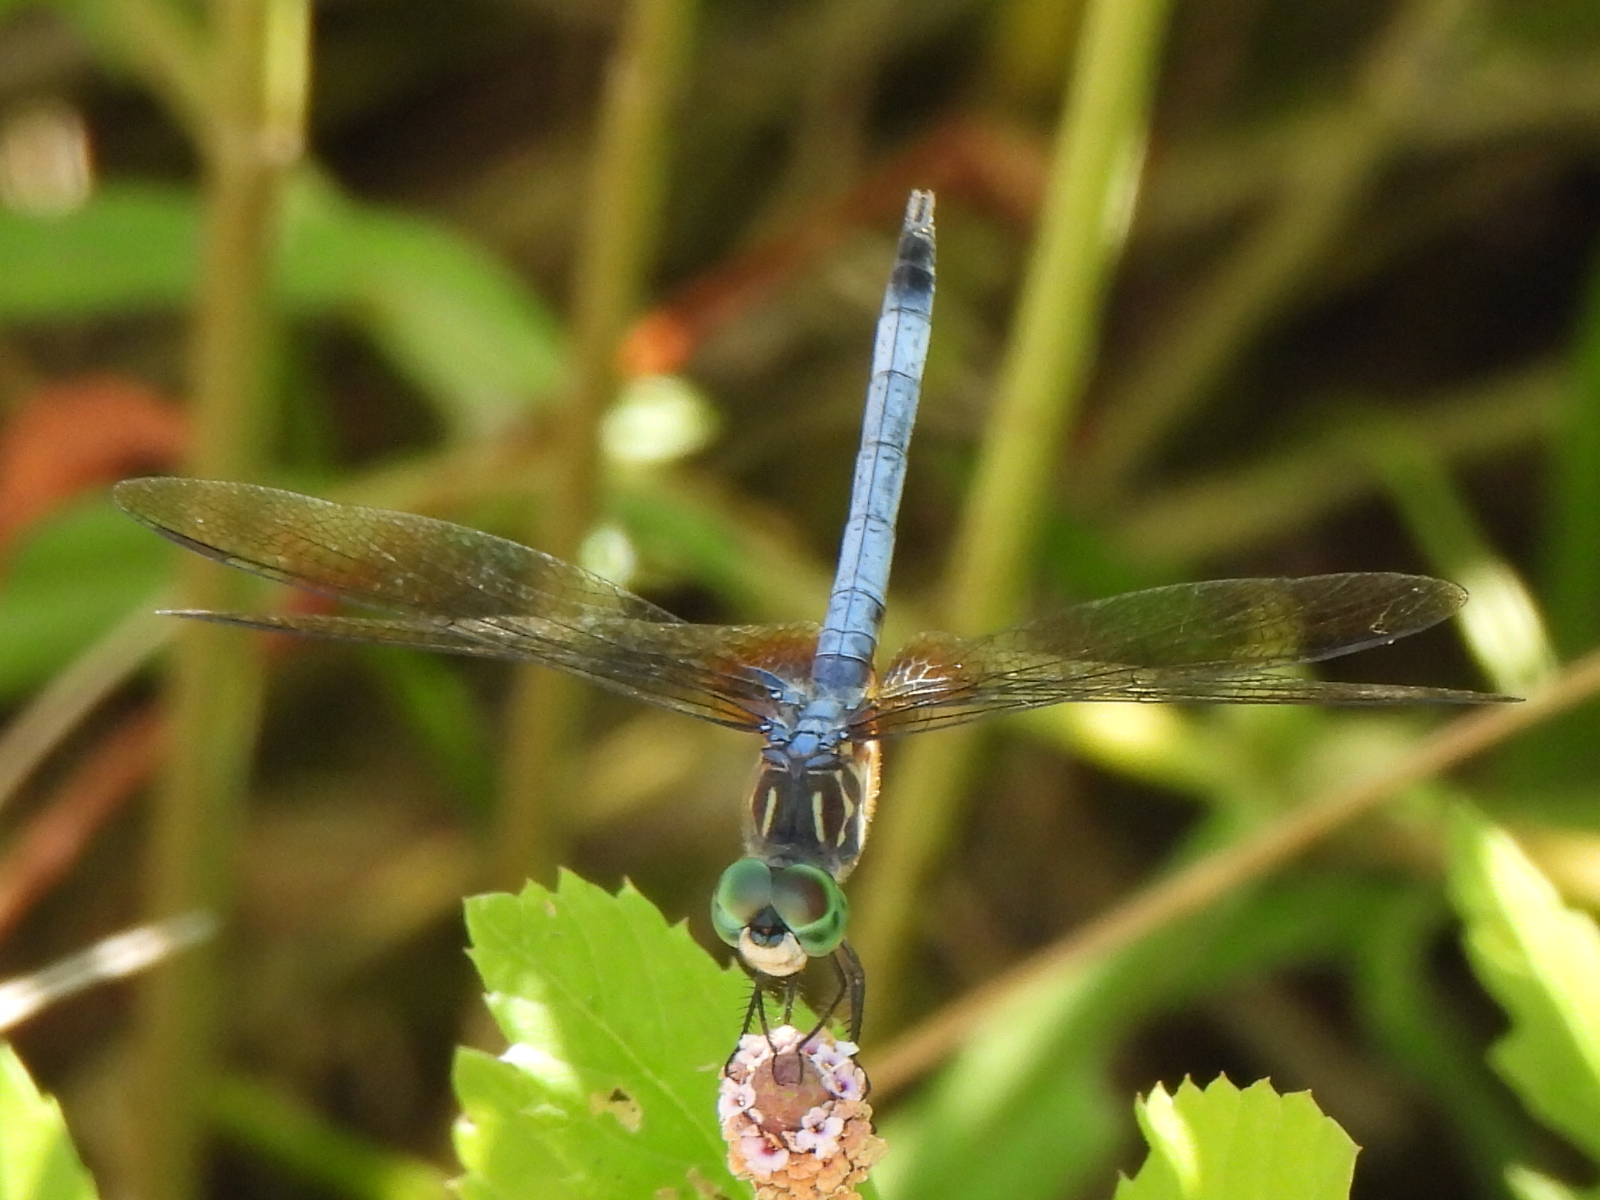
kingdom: Animalia
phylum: Arthropoda
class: Insecta
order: Odonata
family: Libellulidae
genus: Pachydiplax
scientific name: Pachydiplax longipennis
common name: Blue dasher
